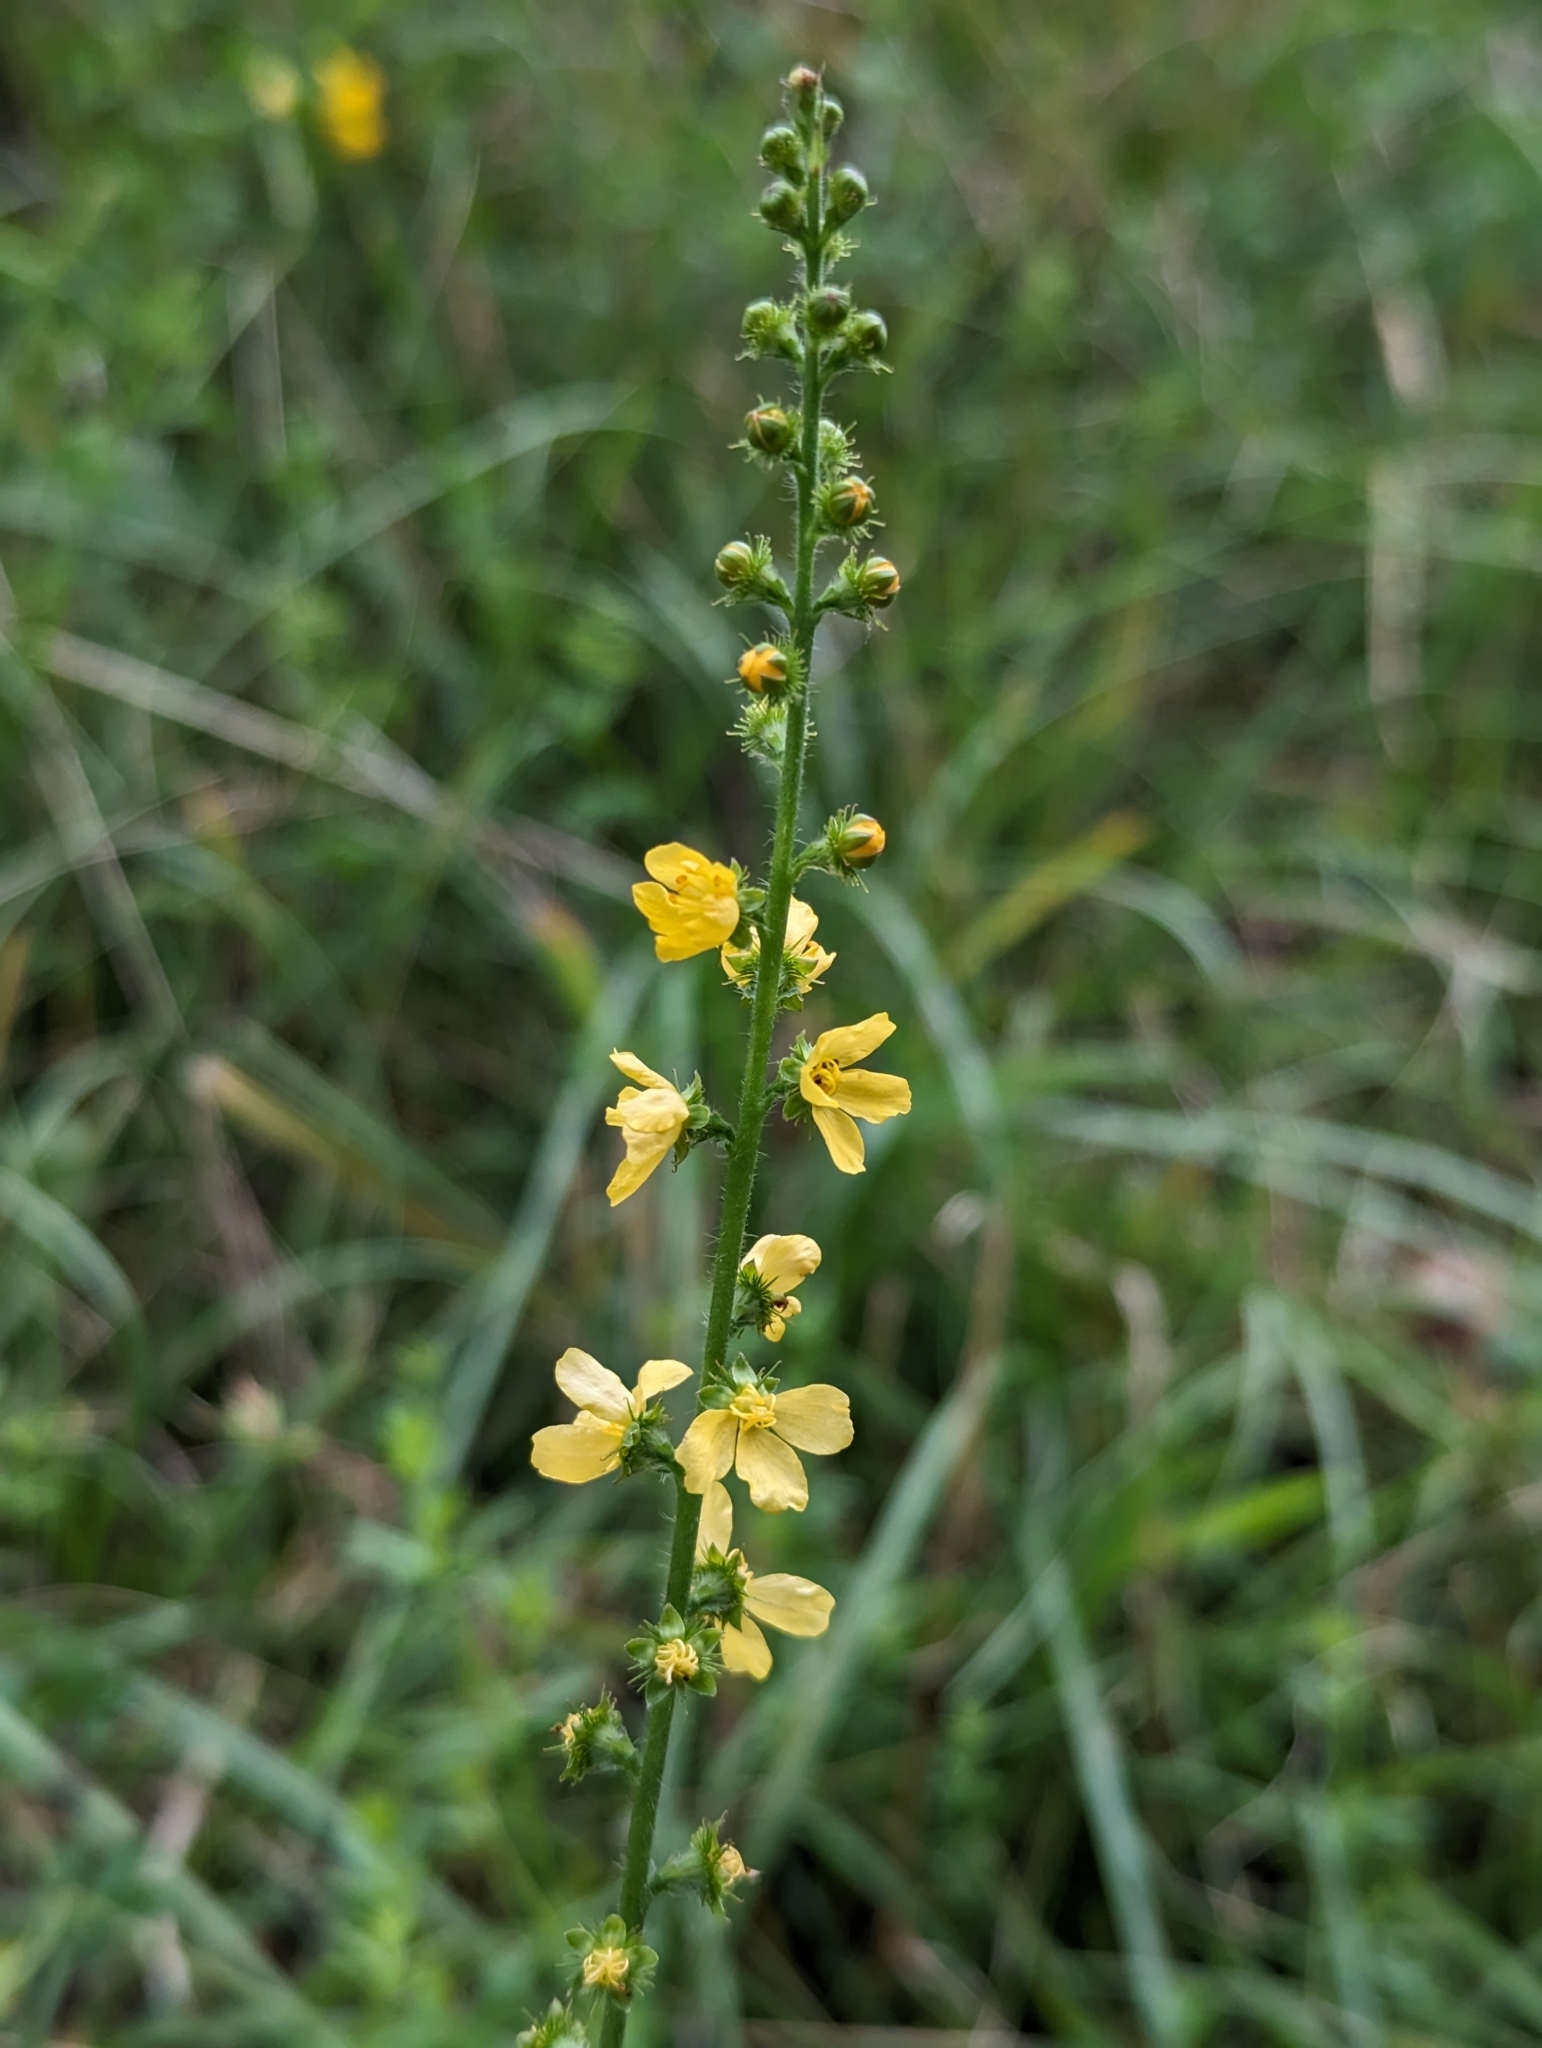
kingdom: Plantae
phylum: Tracheophyta
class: Magnoliopsida
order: Rosales
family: Rosaceae
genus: Agrimonia
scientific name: Agrimonia eupatoria
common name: Agrimony
